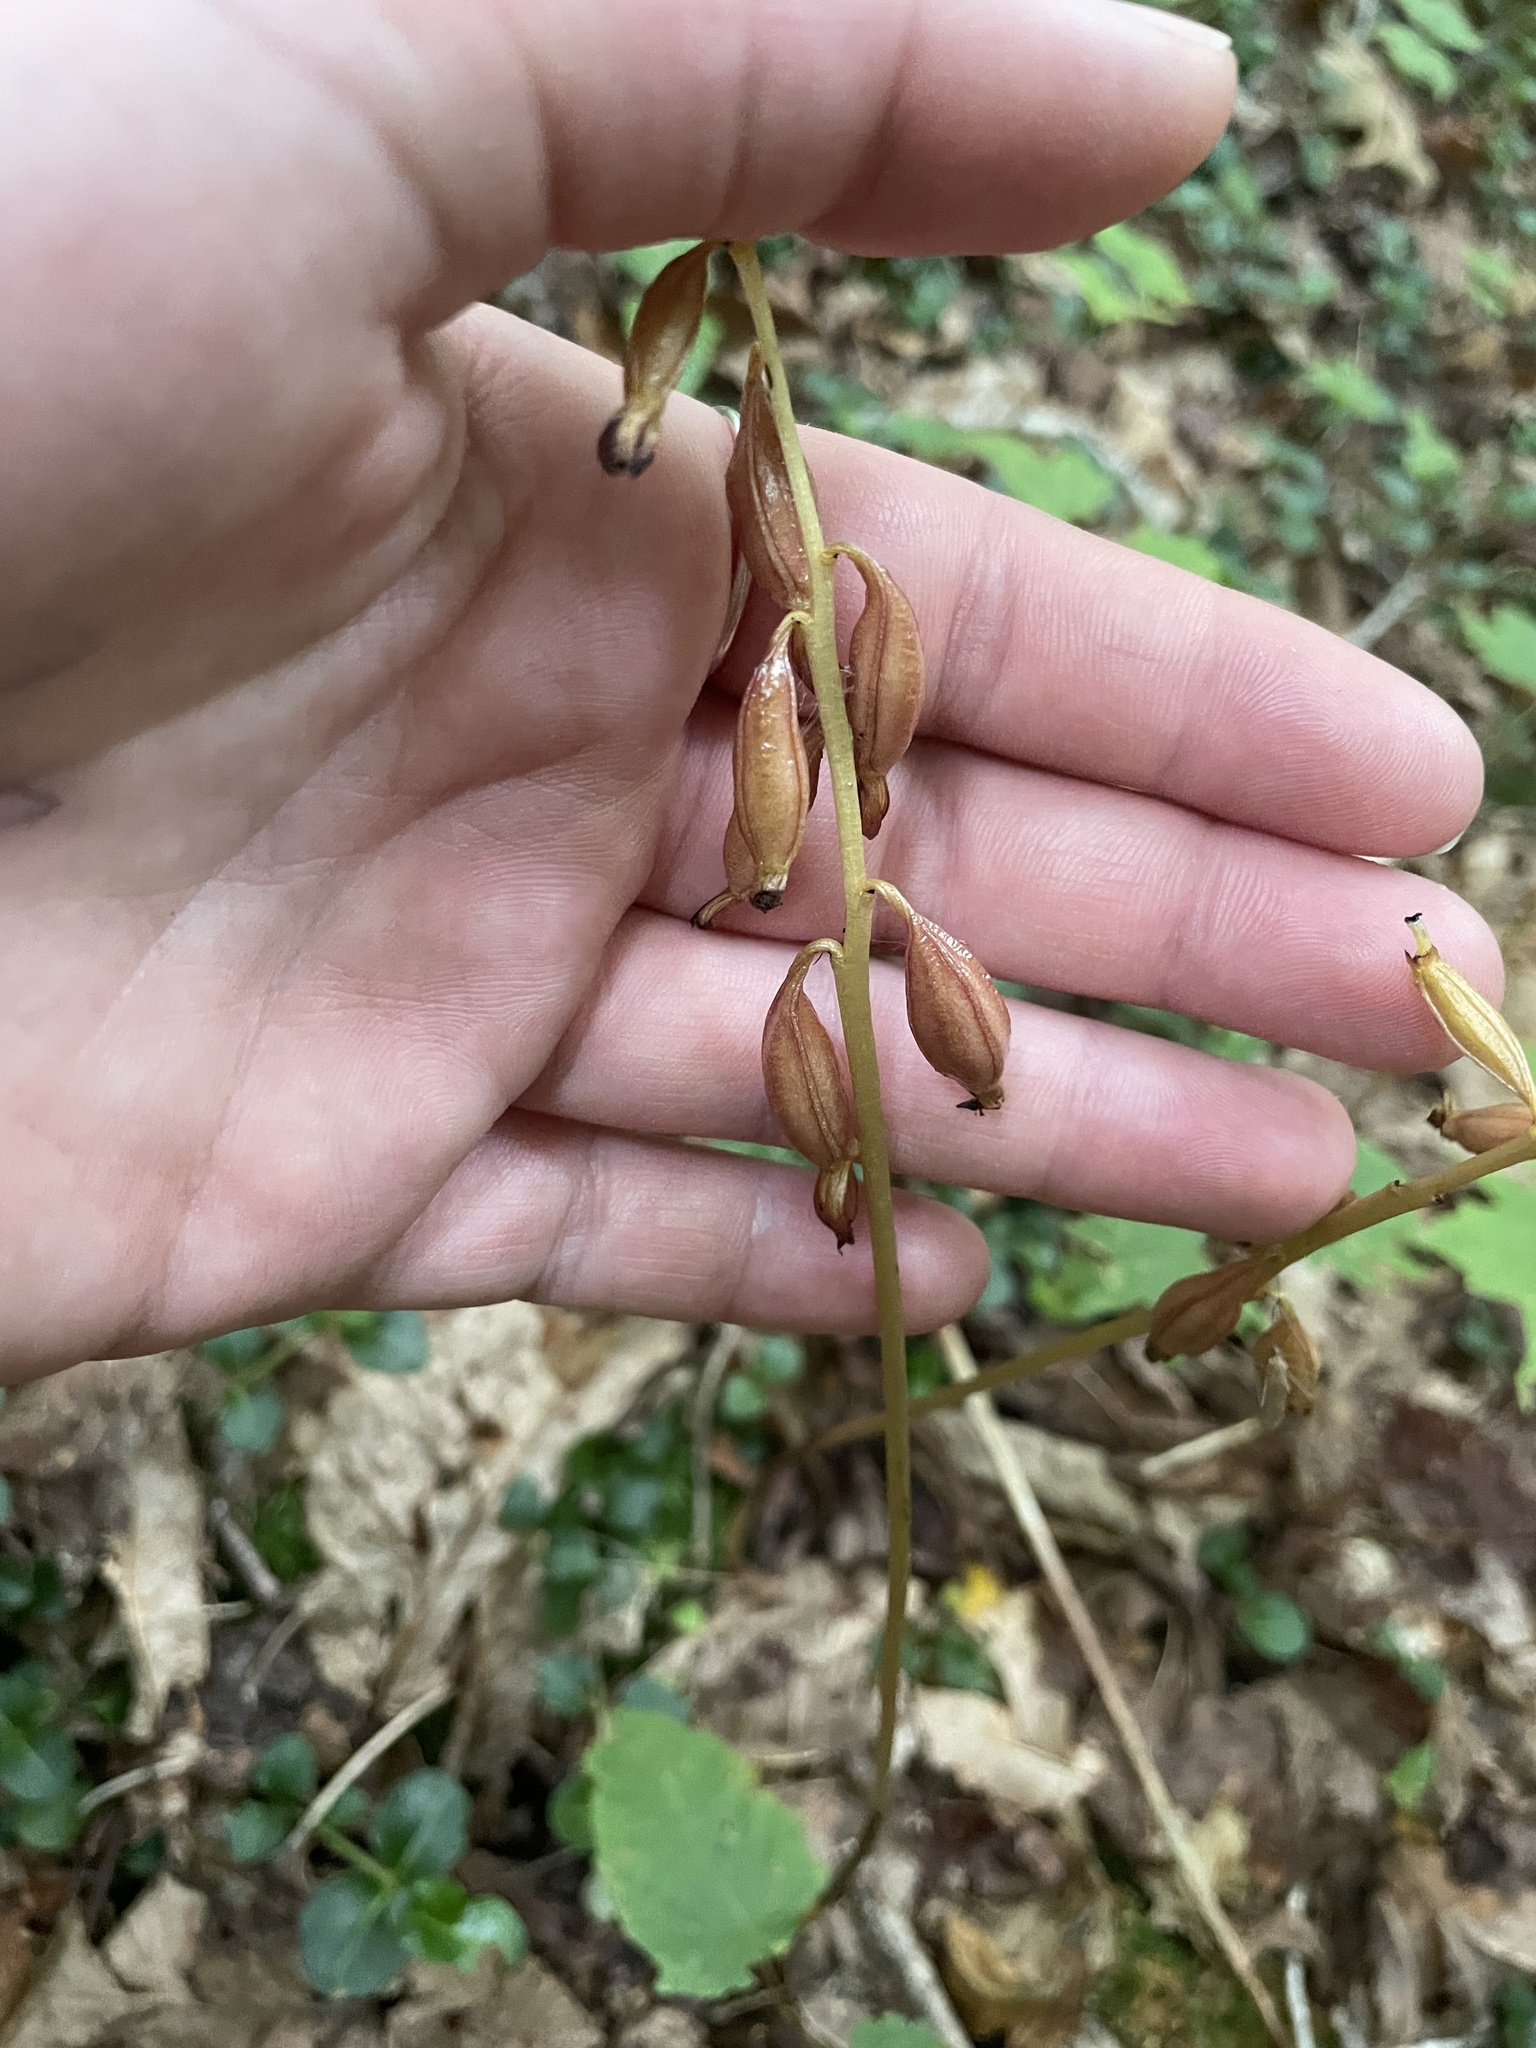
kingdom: Plantae
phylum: Tracheophyta
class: Liliopsida
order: Asparagales
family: Orchidaceae
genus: Corallorhiza
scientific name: Corallorhiza maculata
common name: Spotted coralroot
